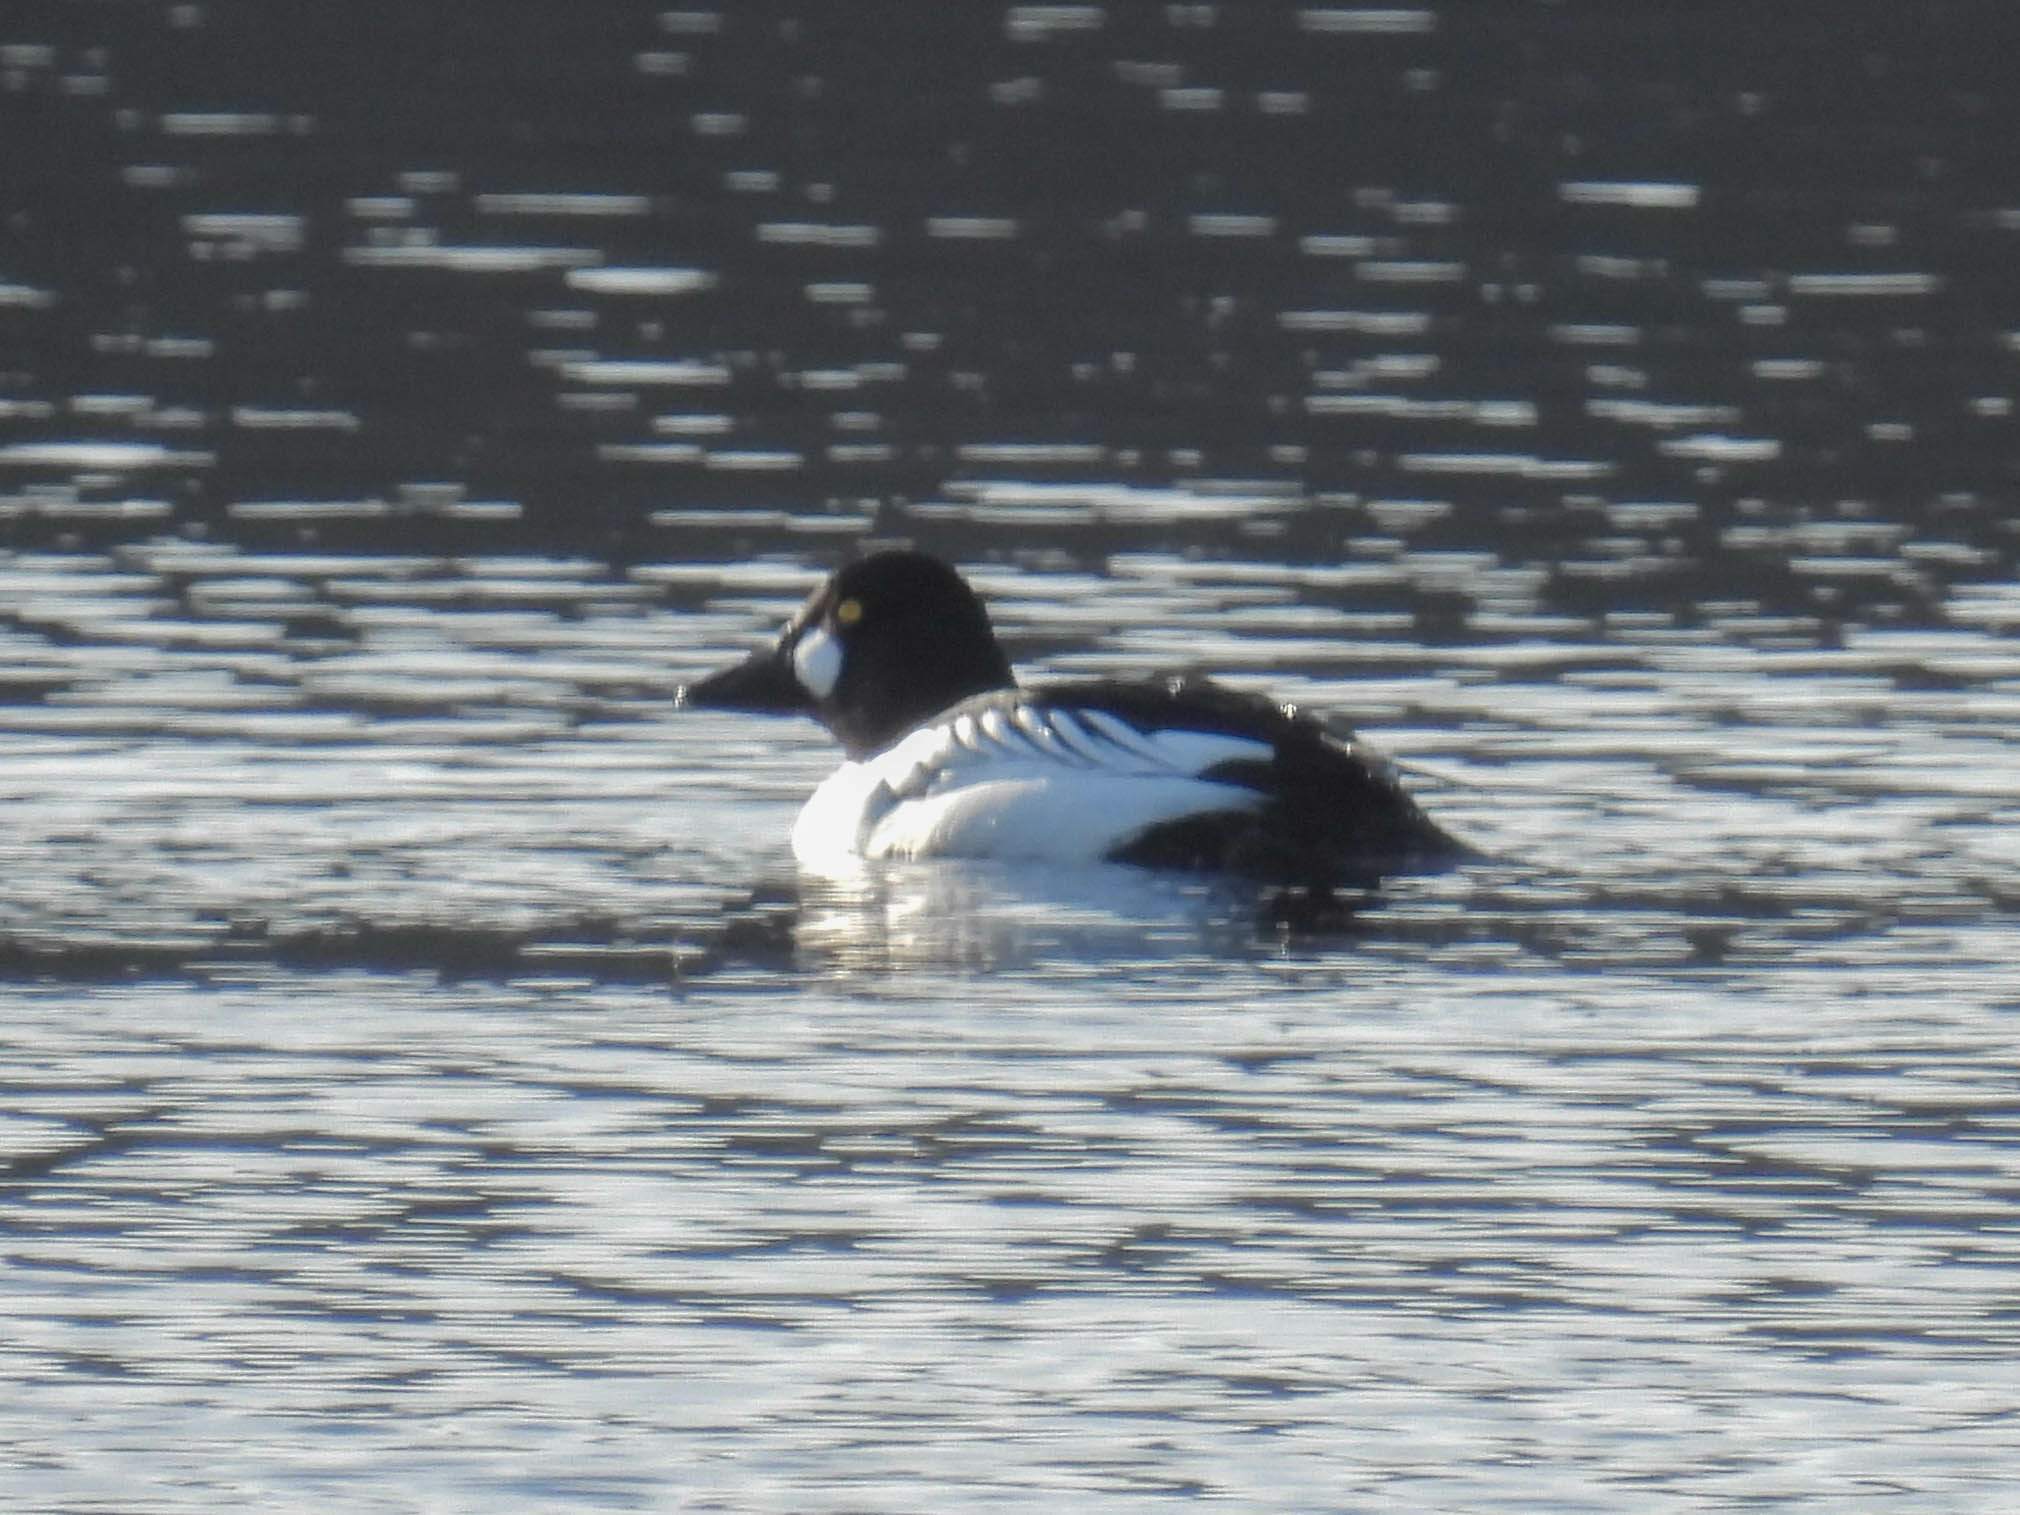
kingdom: Animalia
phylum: Chordata
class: Aves
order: Anseriformes
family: Anatidae
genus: Bucephala
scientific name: Bucephala clangula
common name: Common goldeneye
